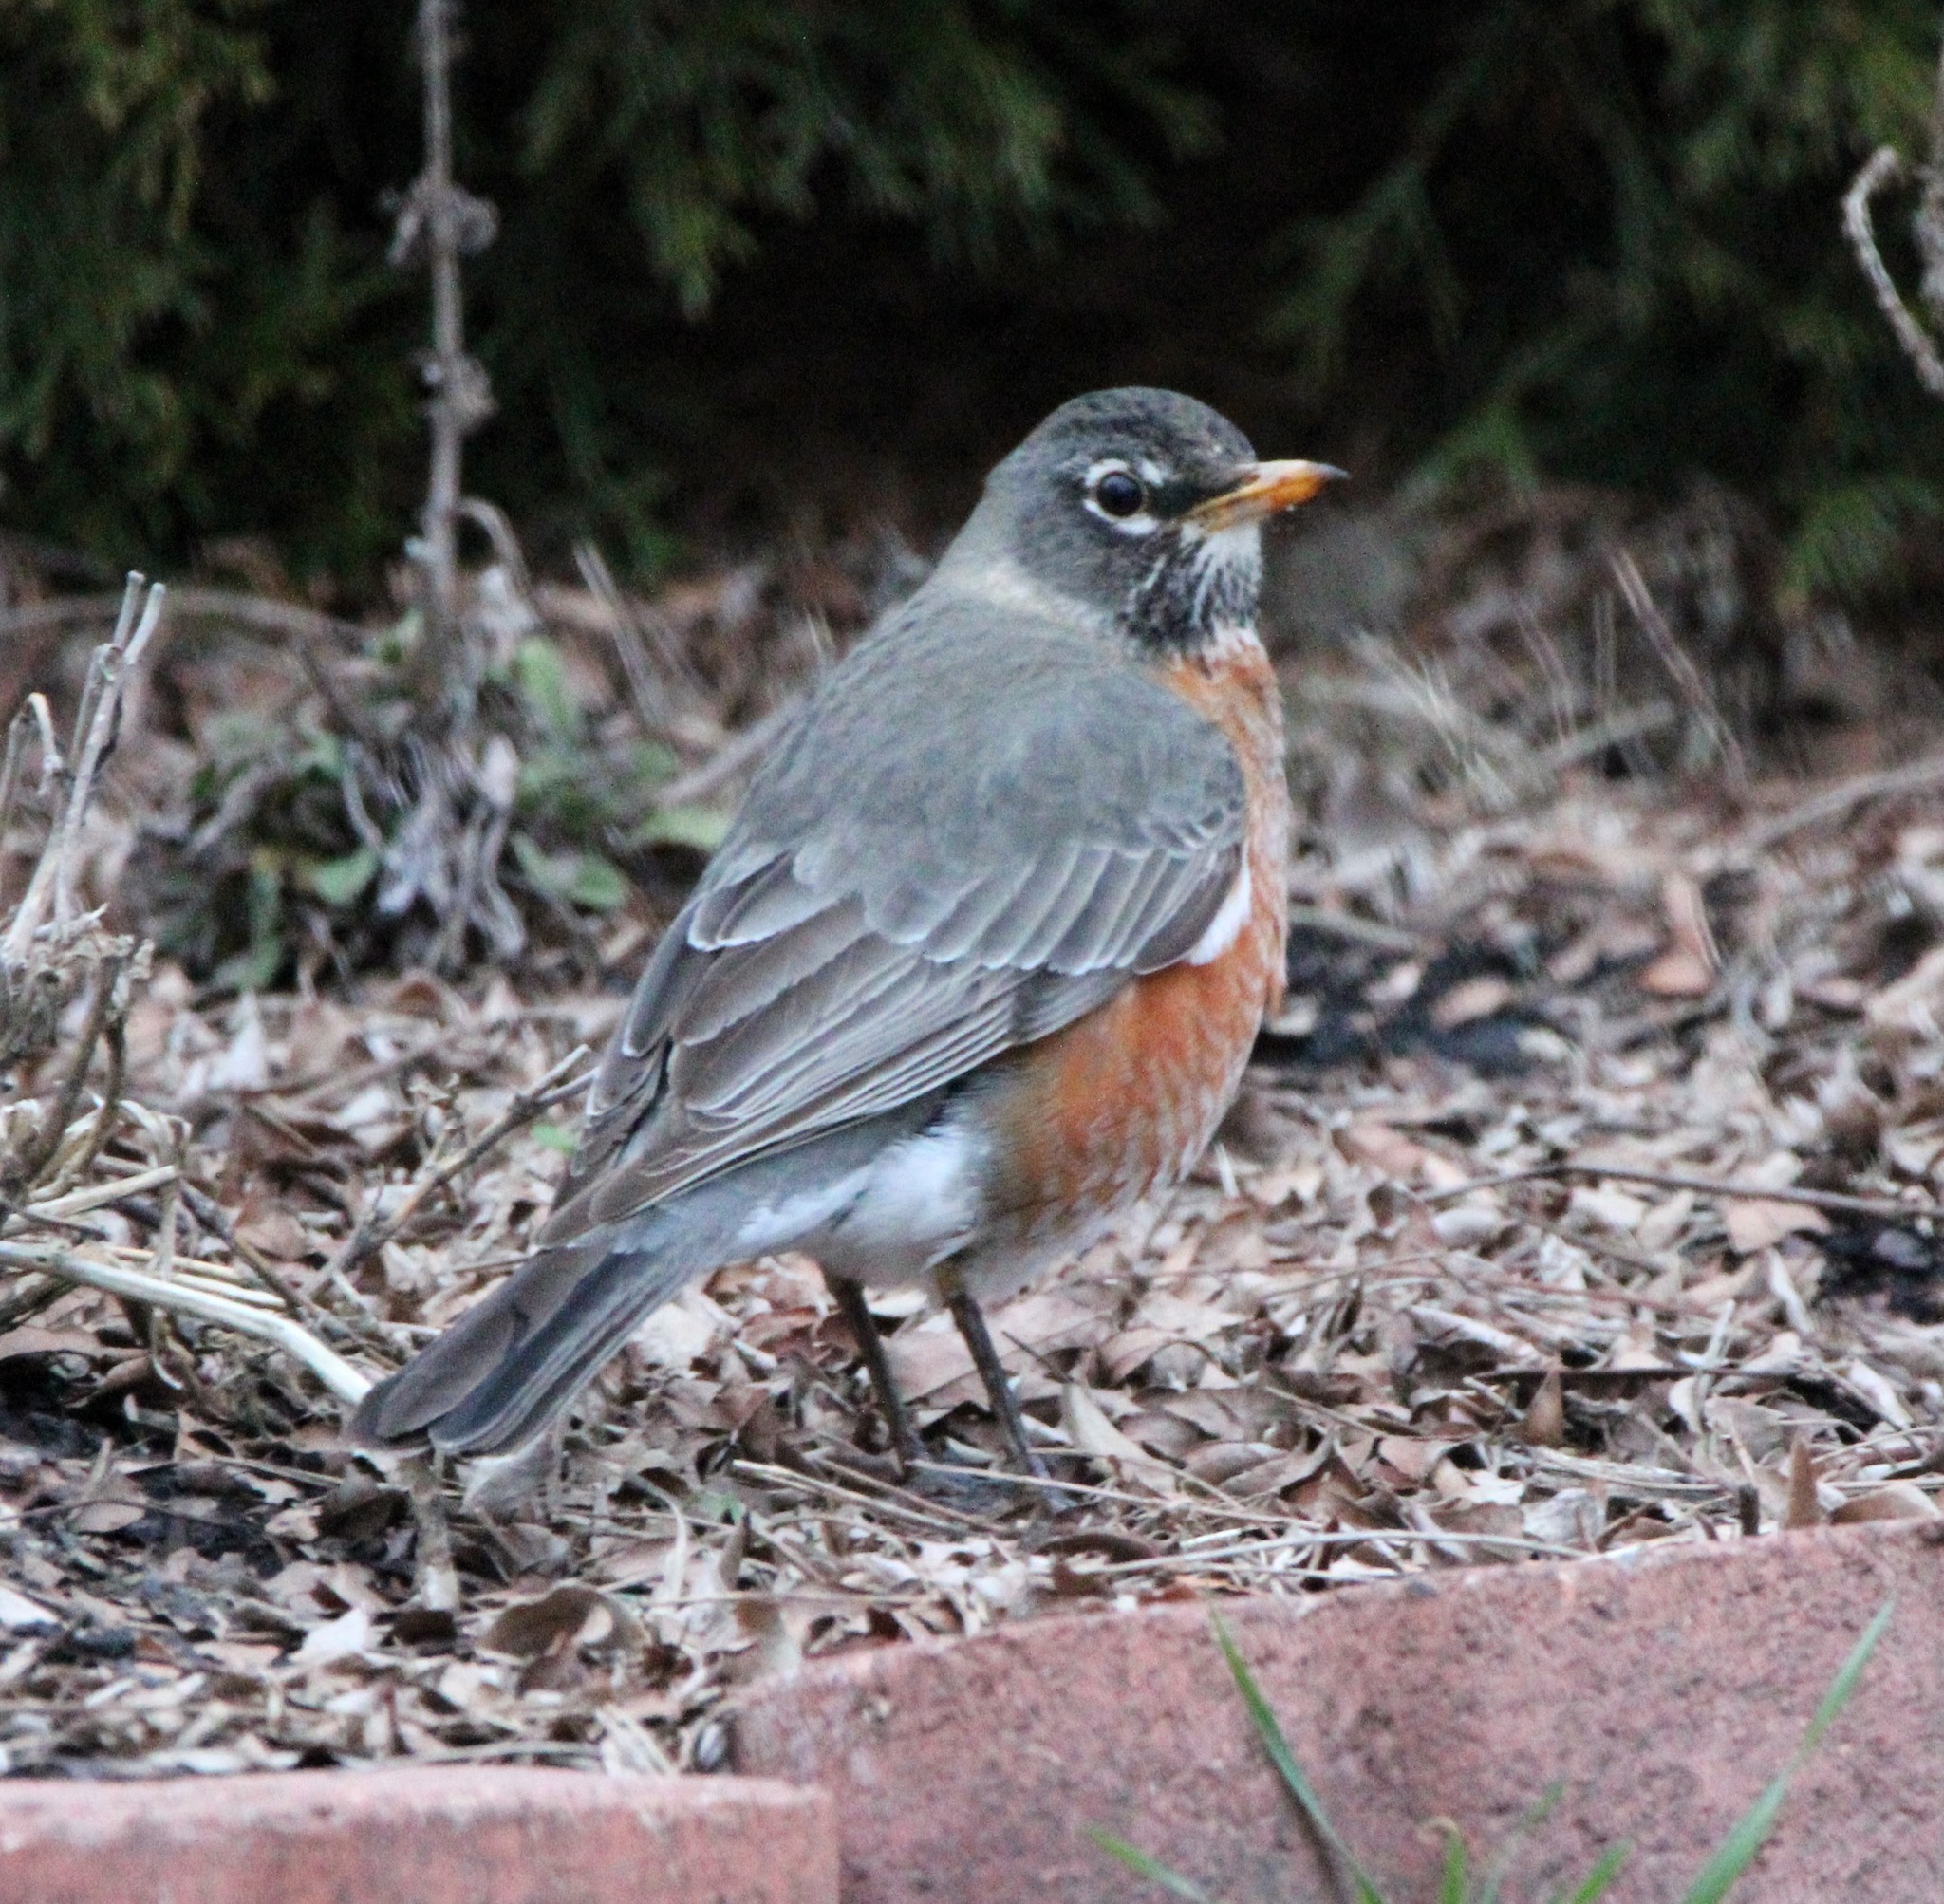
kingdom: Animalia
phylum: Chordata
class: Aves
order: Passeriformes
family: Turdidae
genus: Turdus
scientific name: Turdus migratorius
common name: American robin
